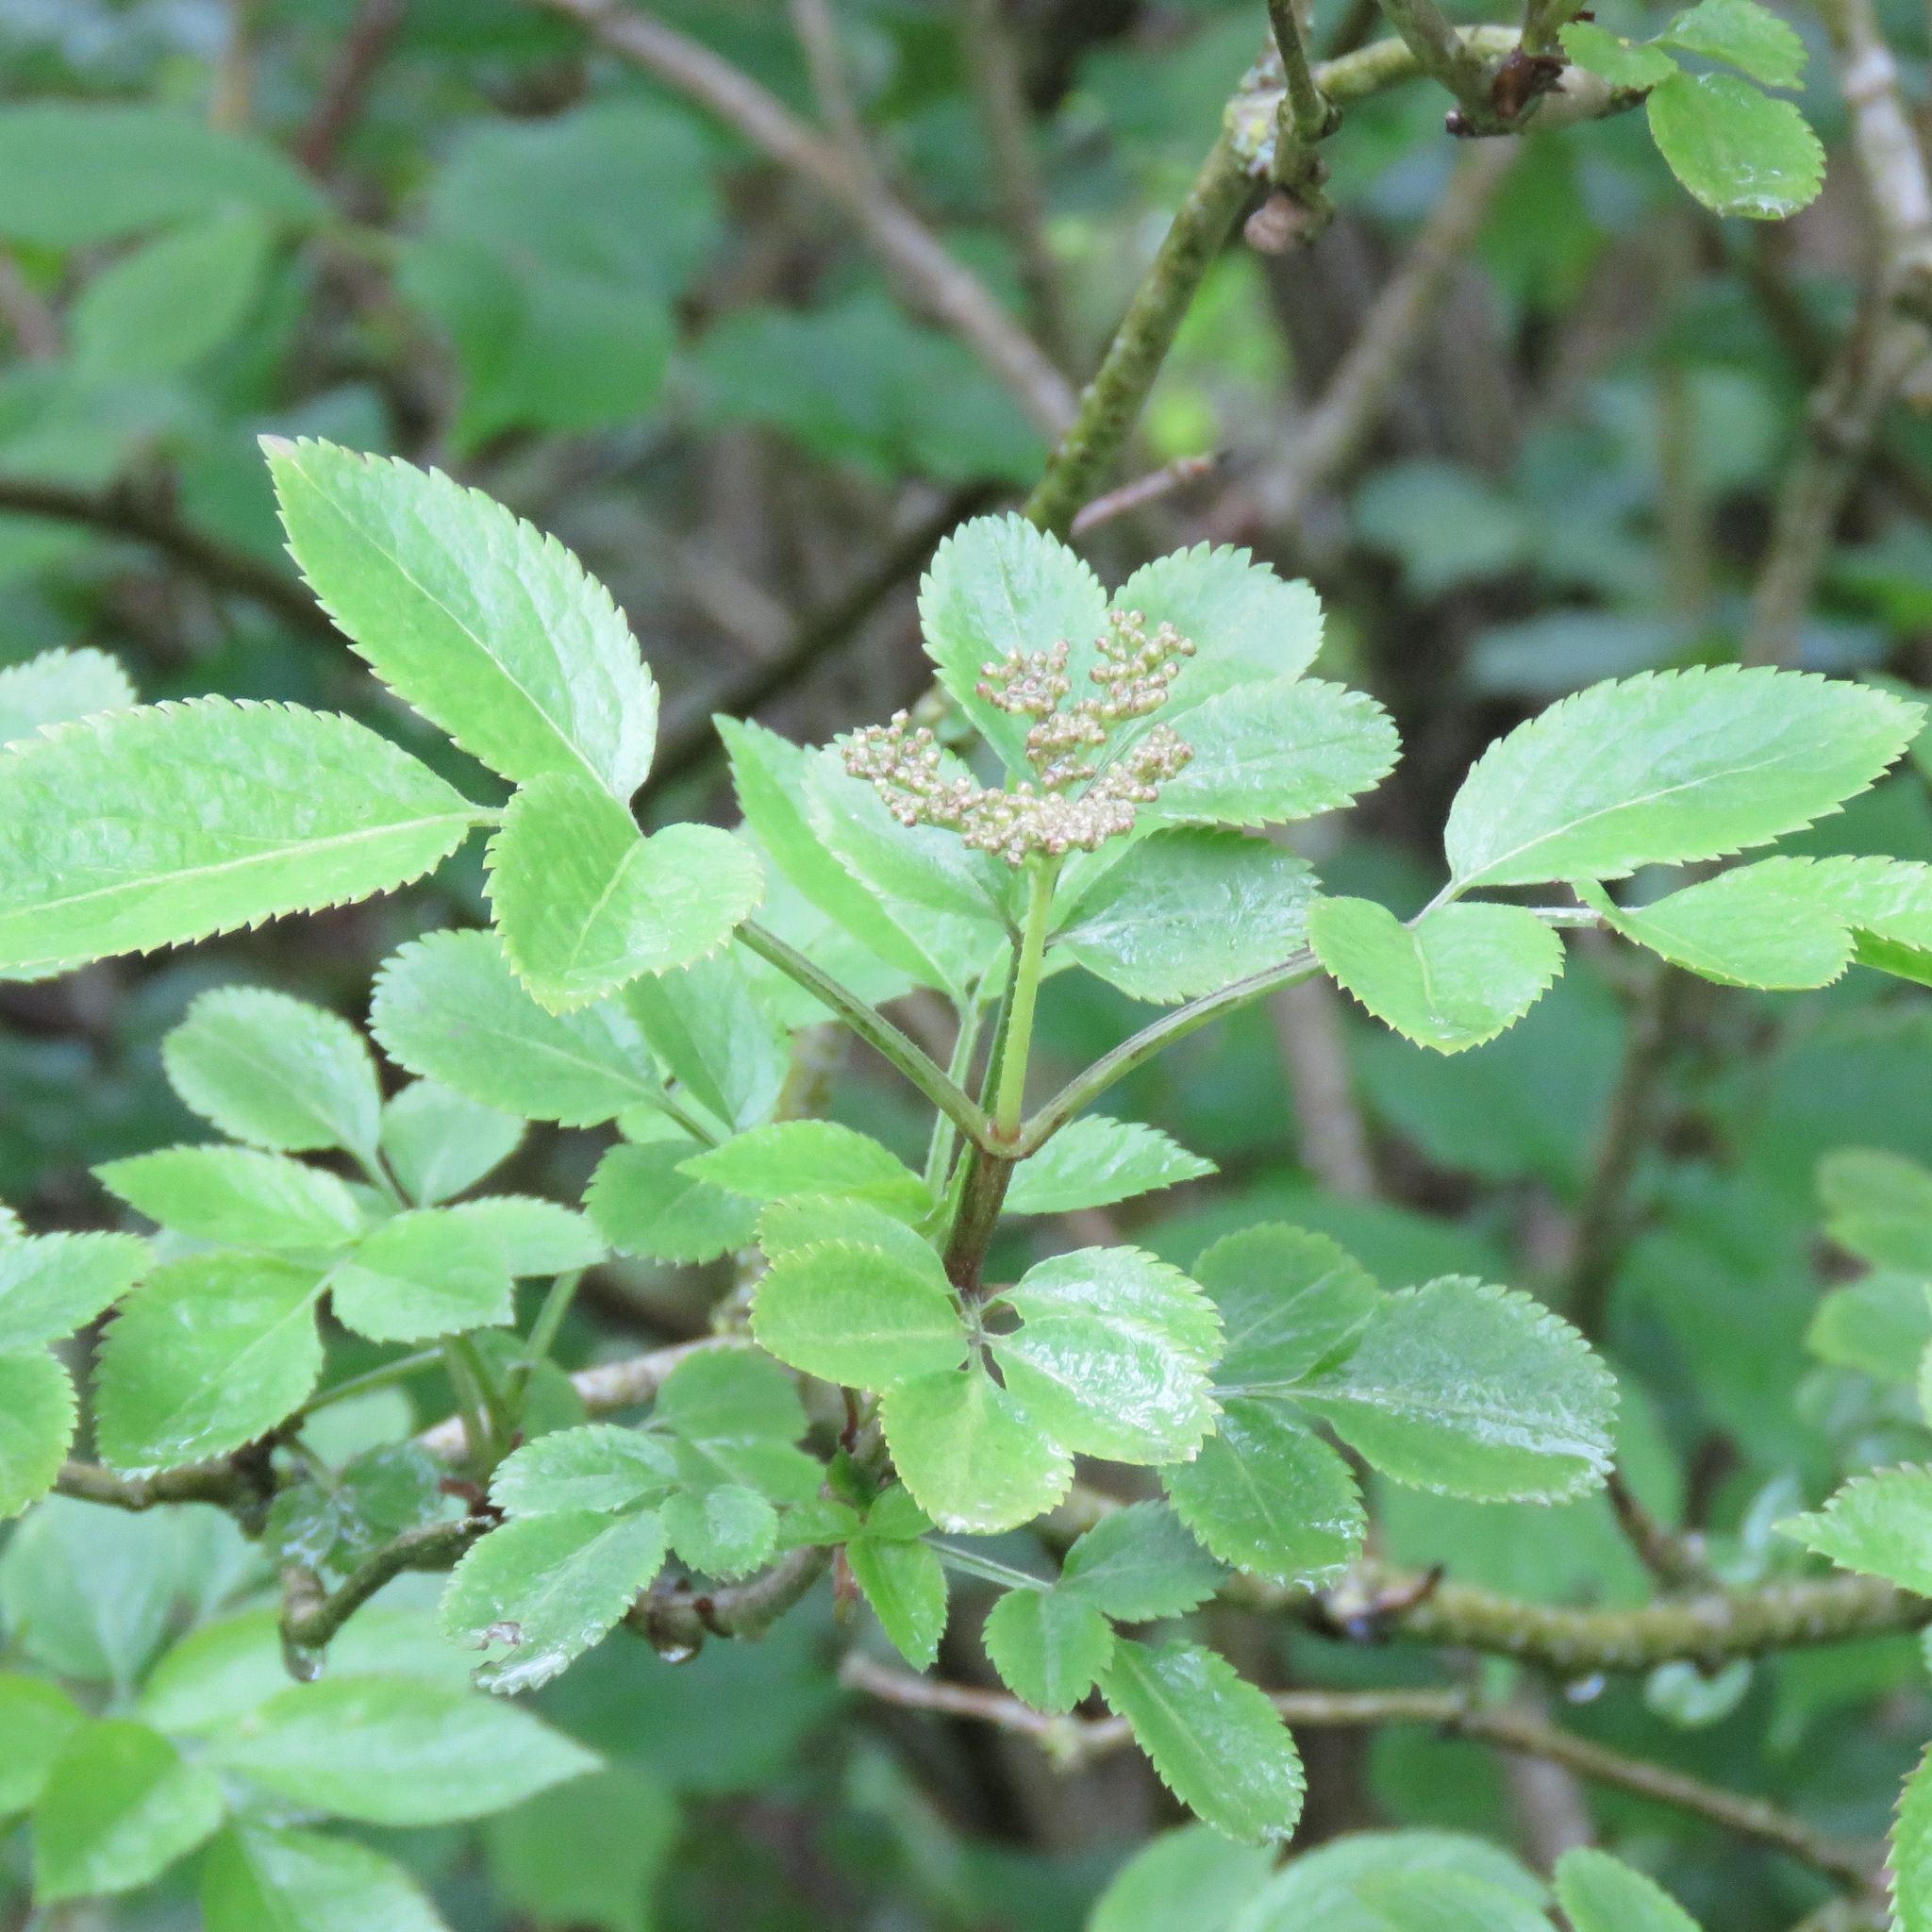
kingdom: Plantae
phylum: Tracheophyta
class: Magnoliopsida
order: Dipsacales
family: Viburnaceae
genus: Sambucus
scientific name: Sambucus nigra
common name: Elder
